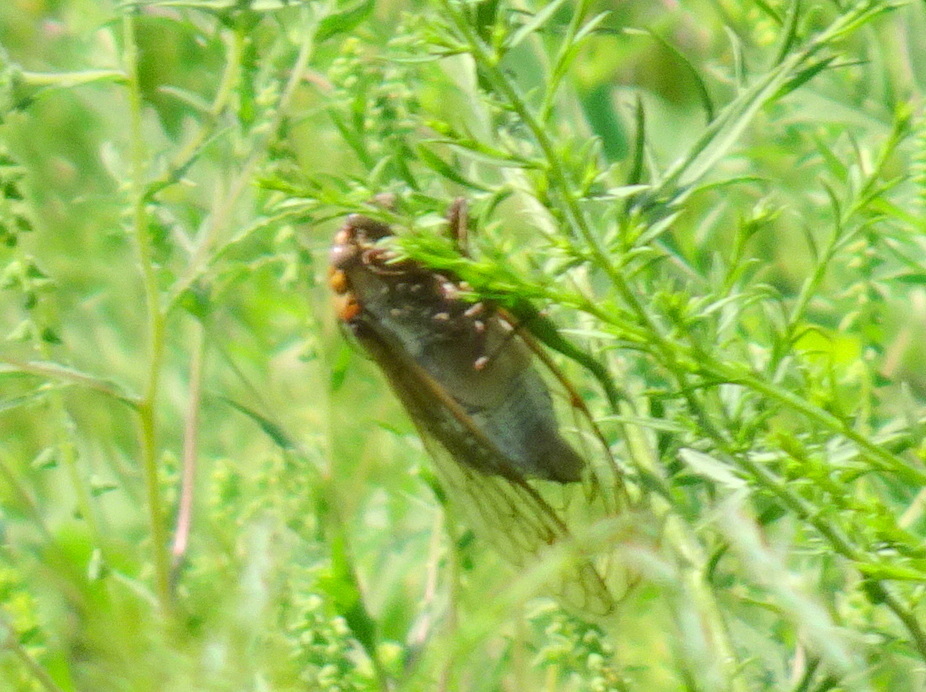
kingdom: Animalia
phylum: Arthropoda
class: Insecta
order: Hemiptera
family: Cicadidae
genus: Megatibicen
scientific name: Megatibicen dorsatus
